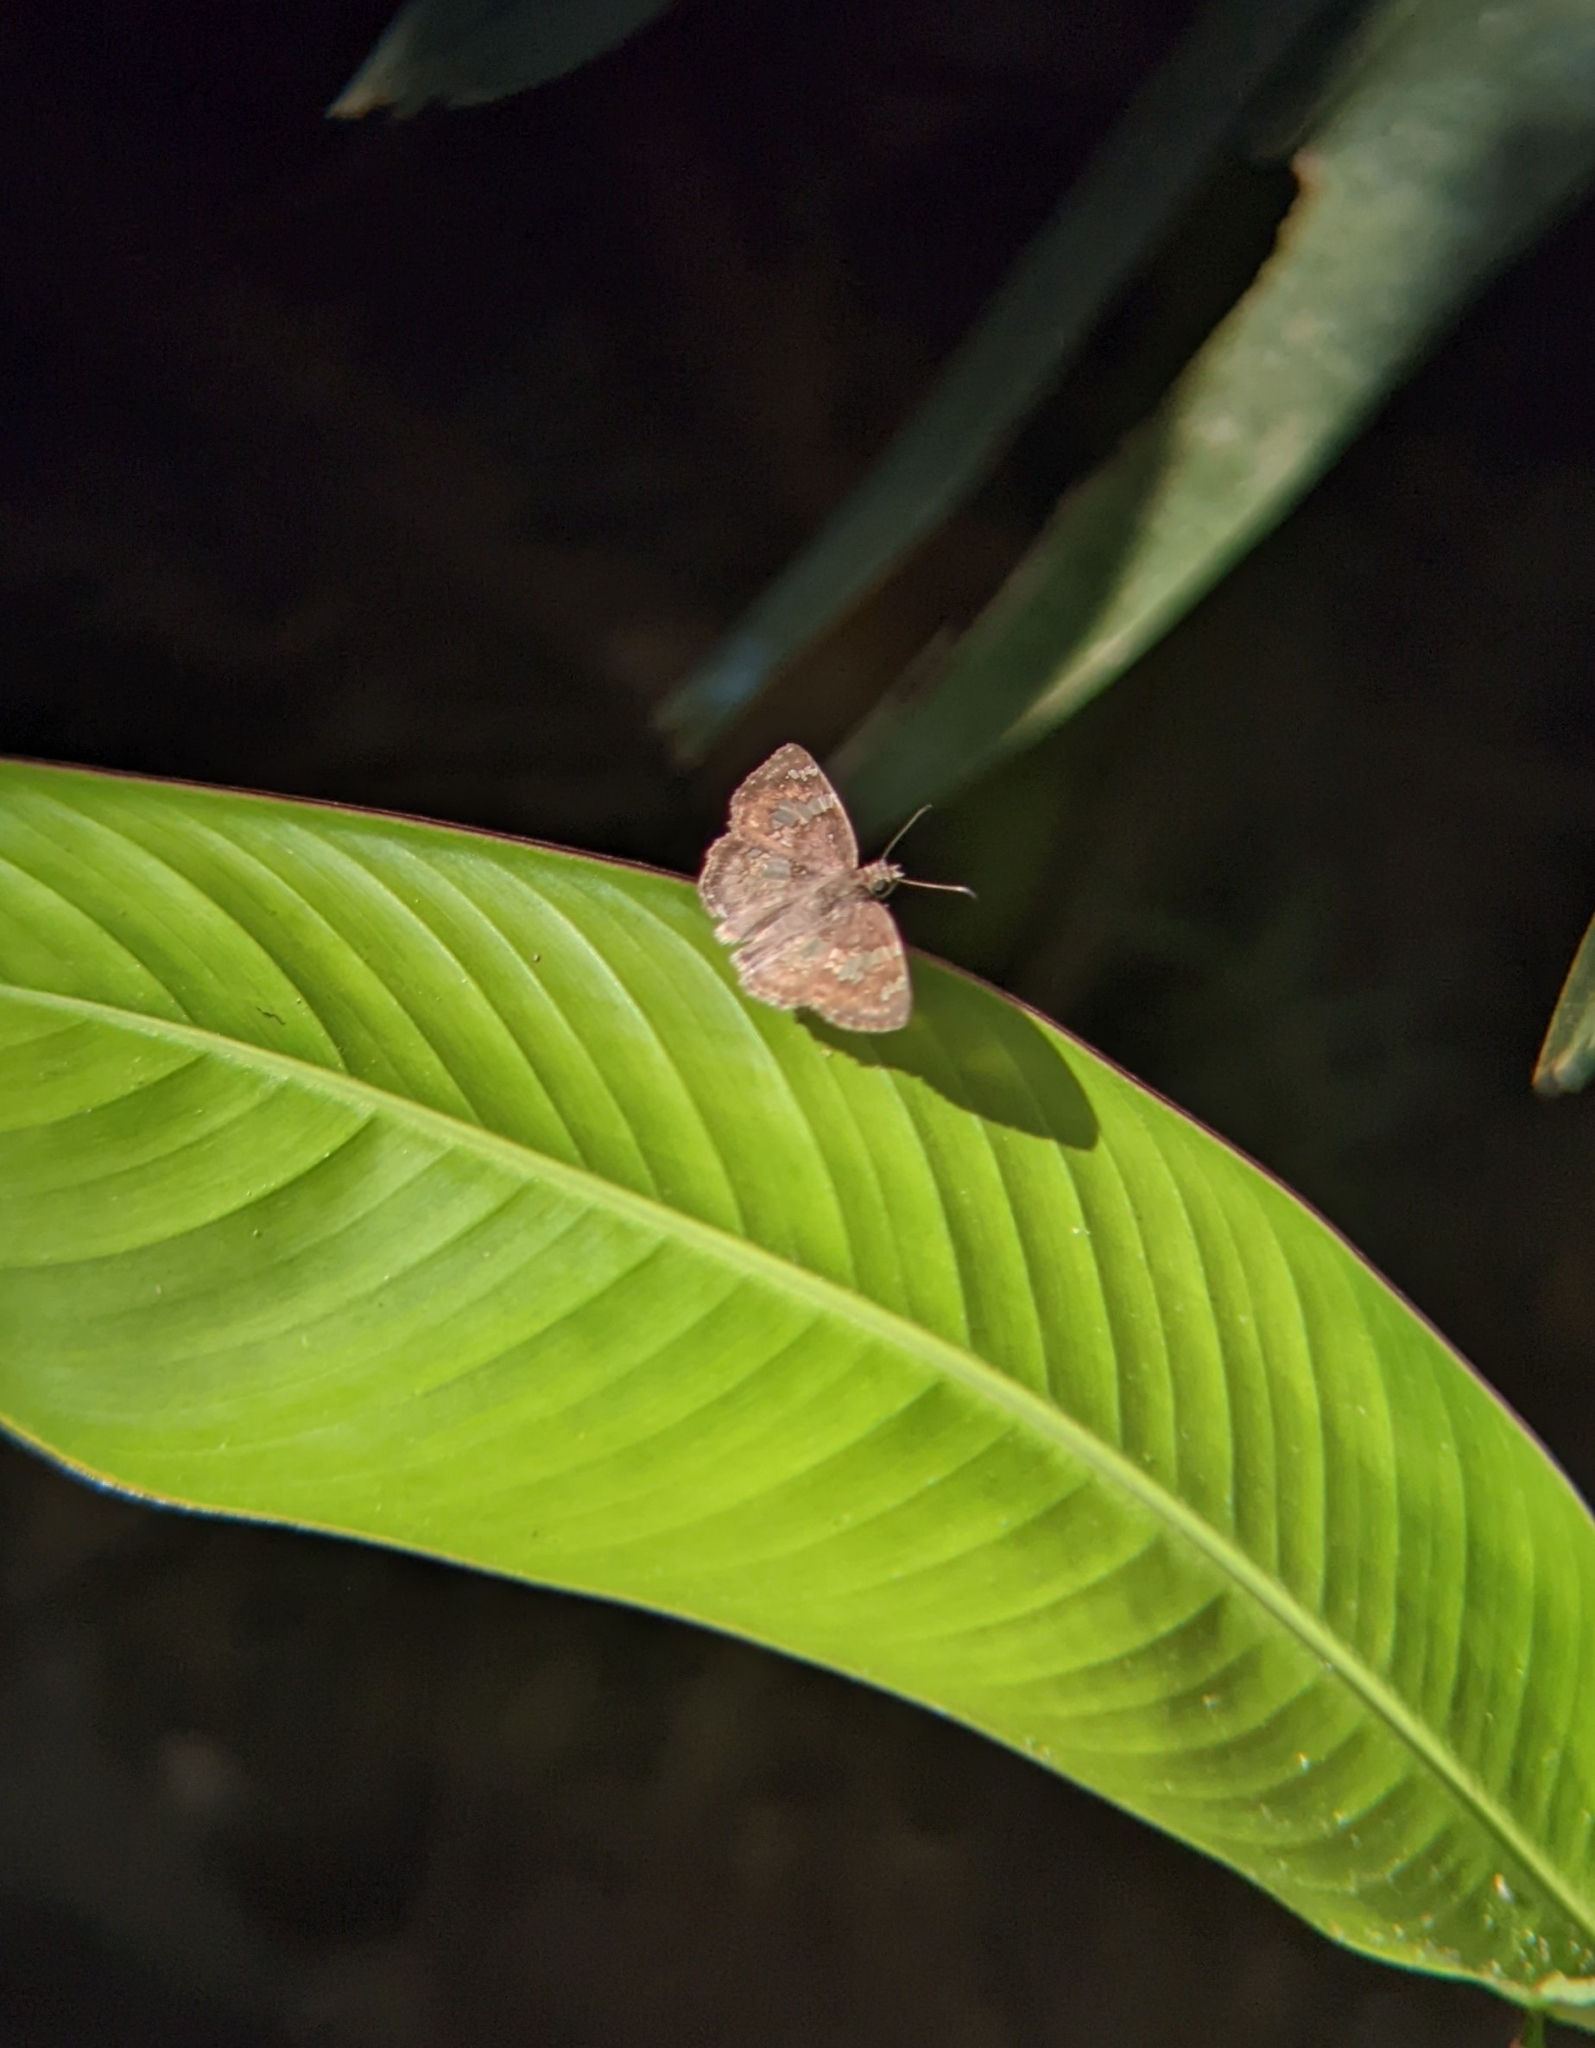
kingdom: Animalia
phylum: Arthropoda
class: Insecta
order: Lepidoptera
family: Hesperiidae
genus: Xenophanes
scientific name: Xenophanes tryxus
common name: Glassy-winged skipper
